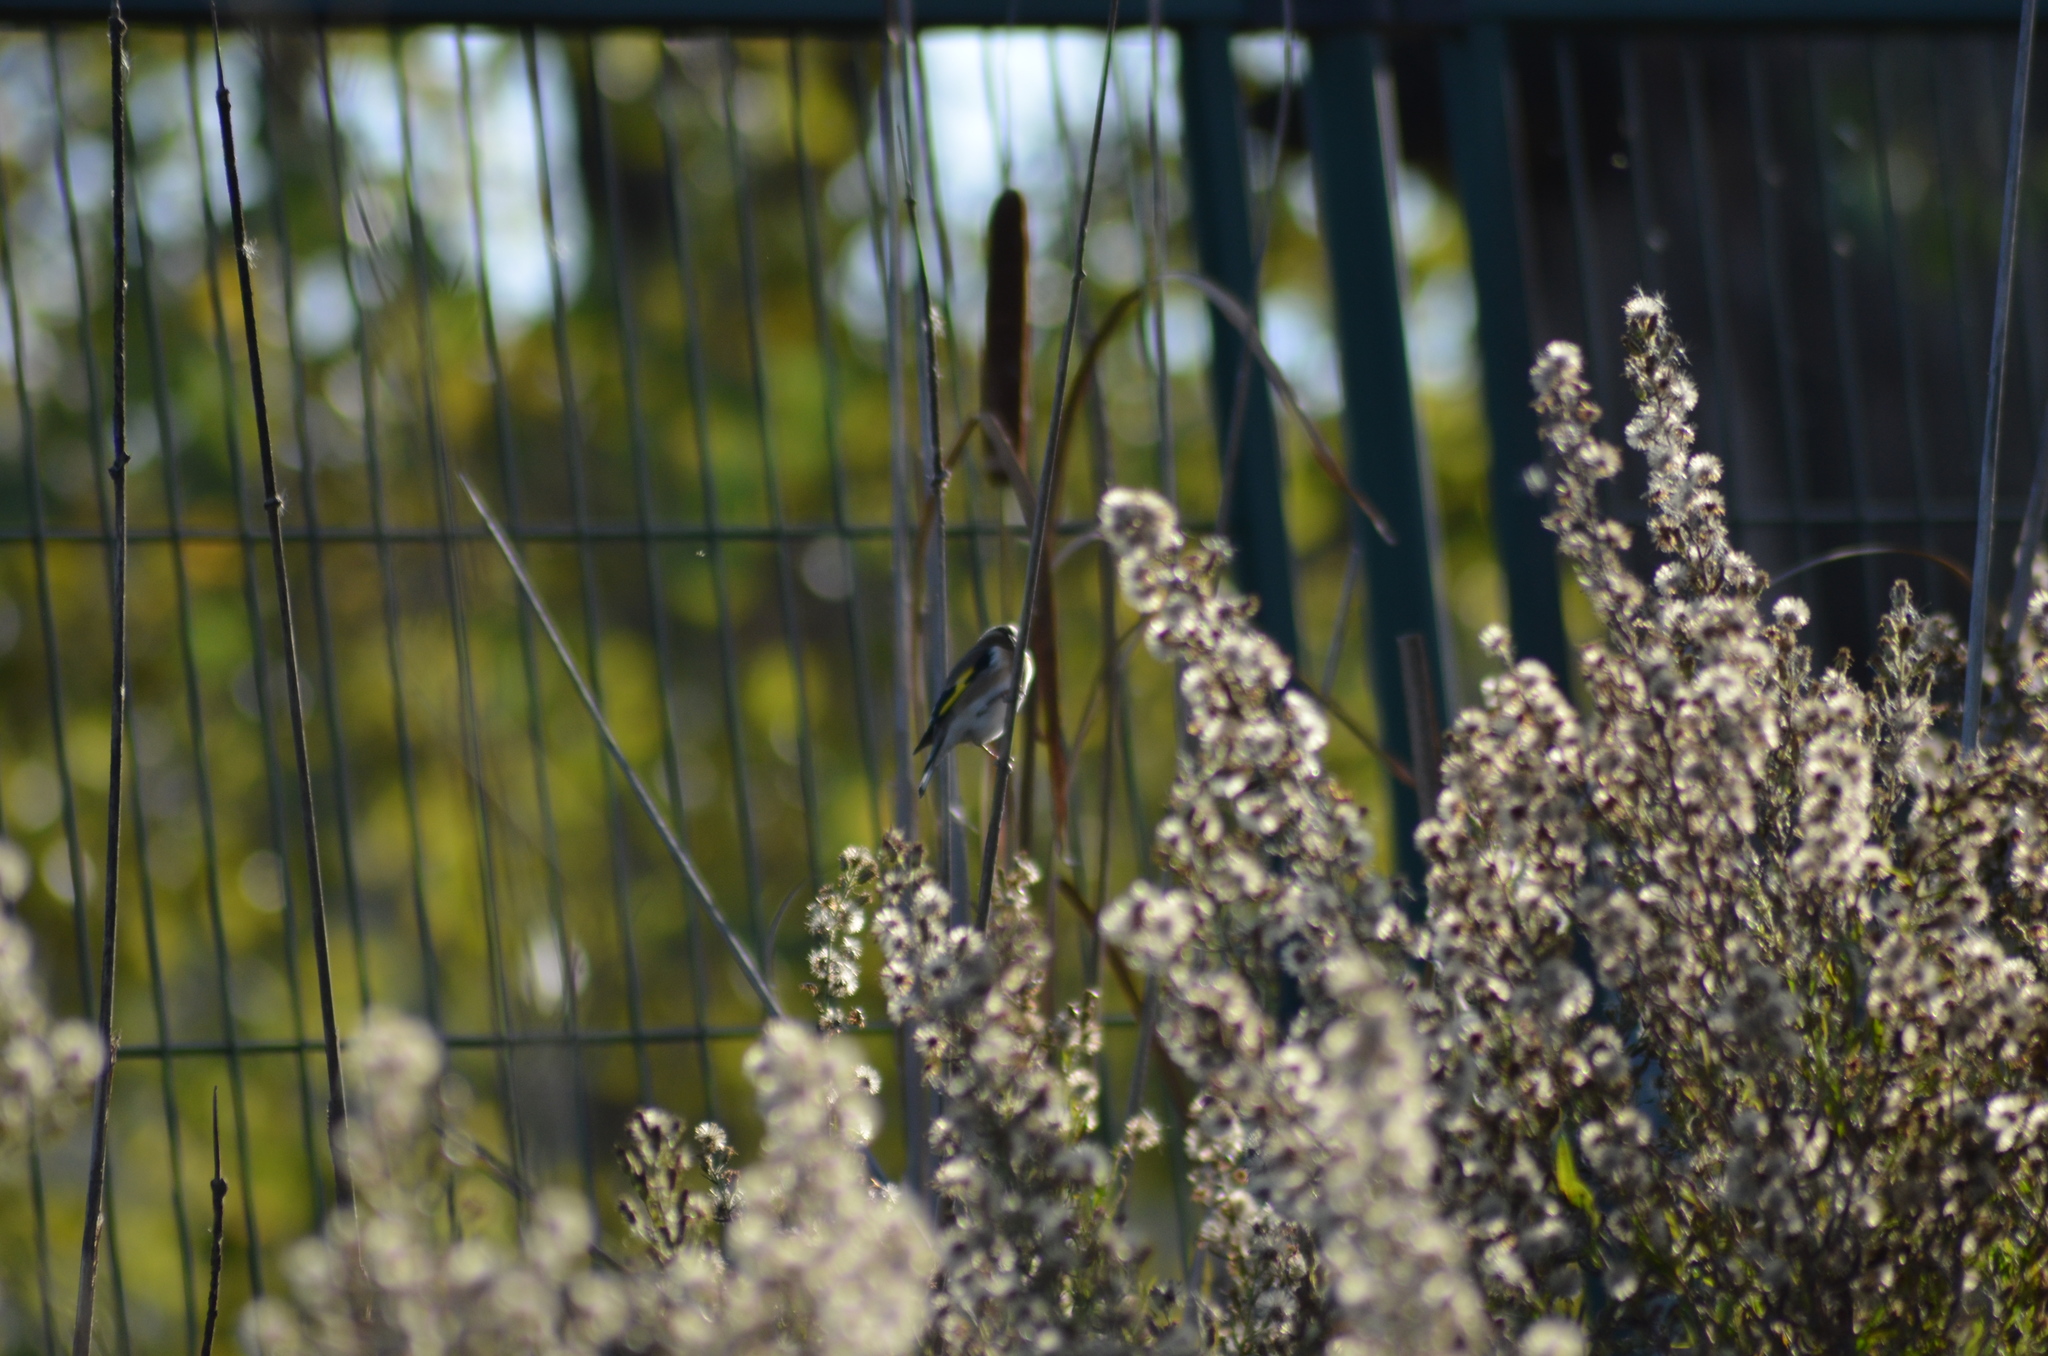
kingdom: Animalia
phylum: Chordata
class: Aves
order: Passeriformes
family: Fringillidae
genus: Carduelis
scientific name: Carduelis carduelis
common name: European goldfinch
